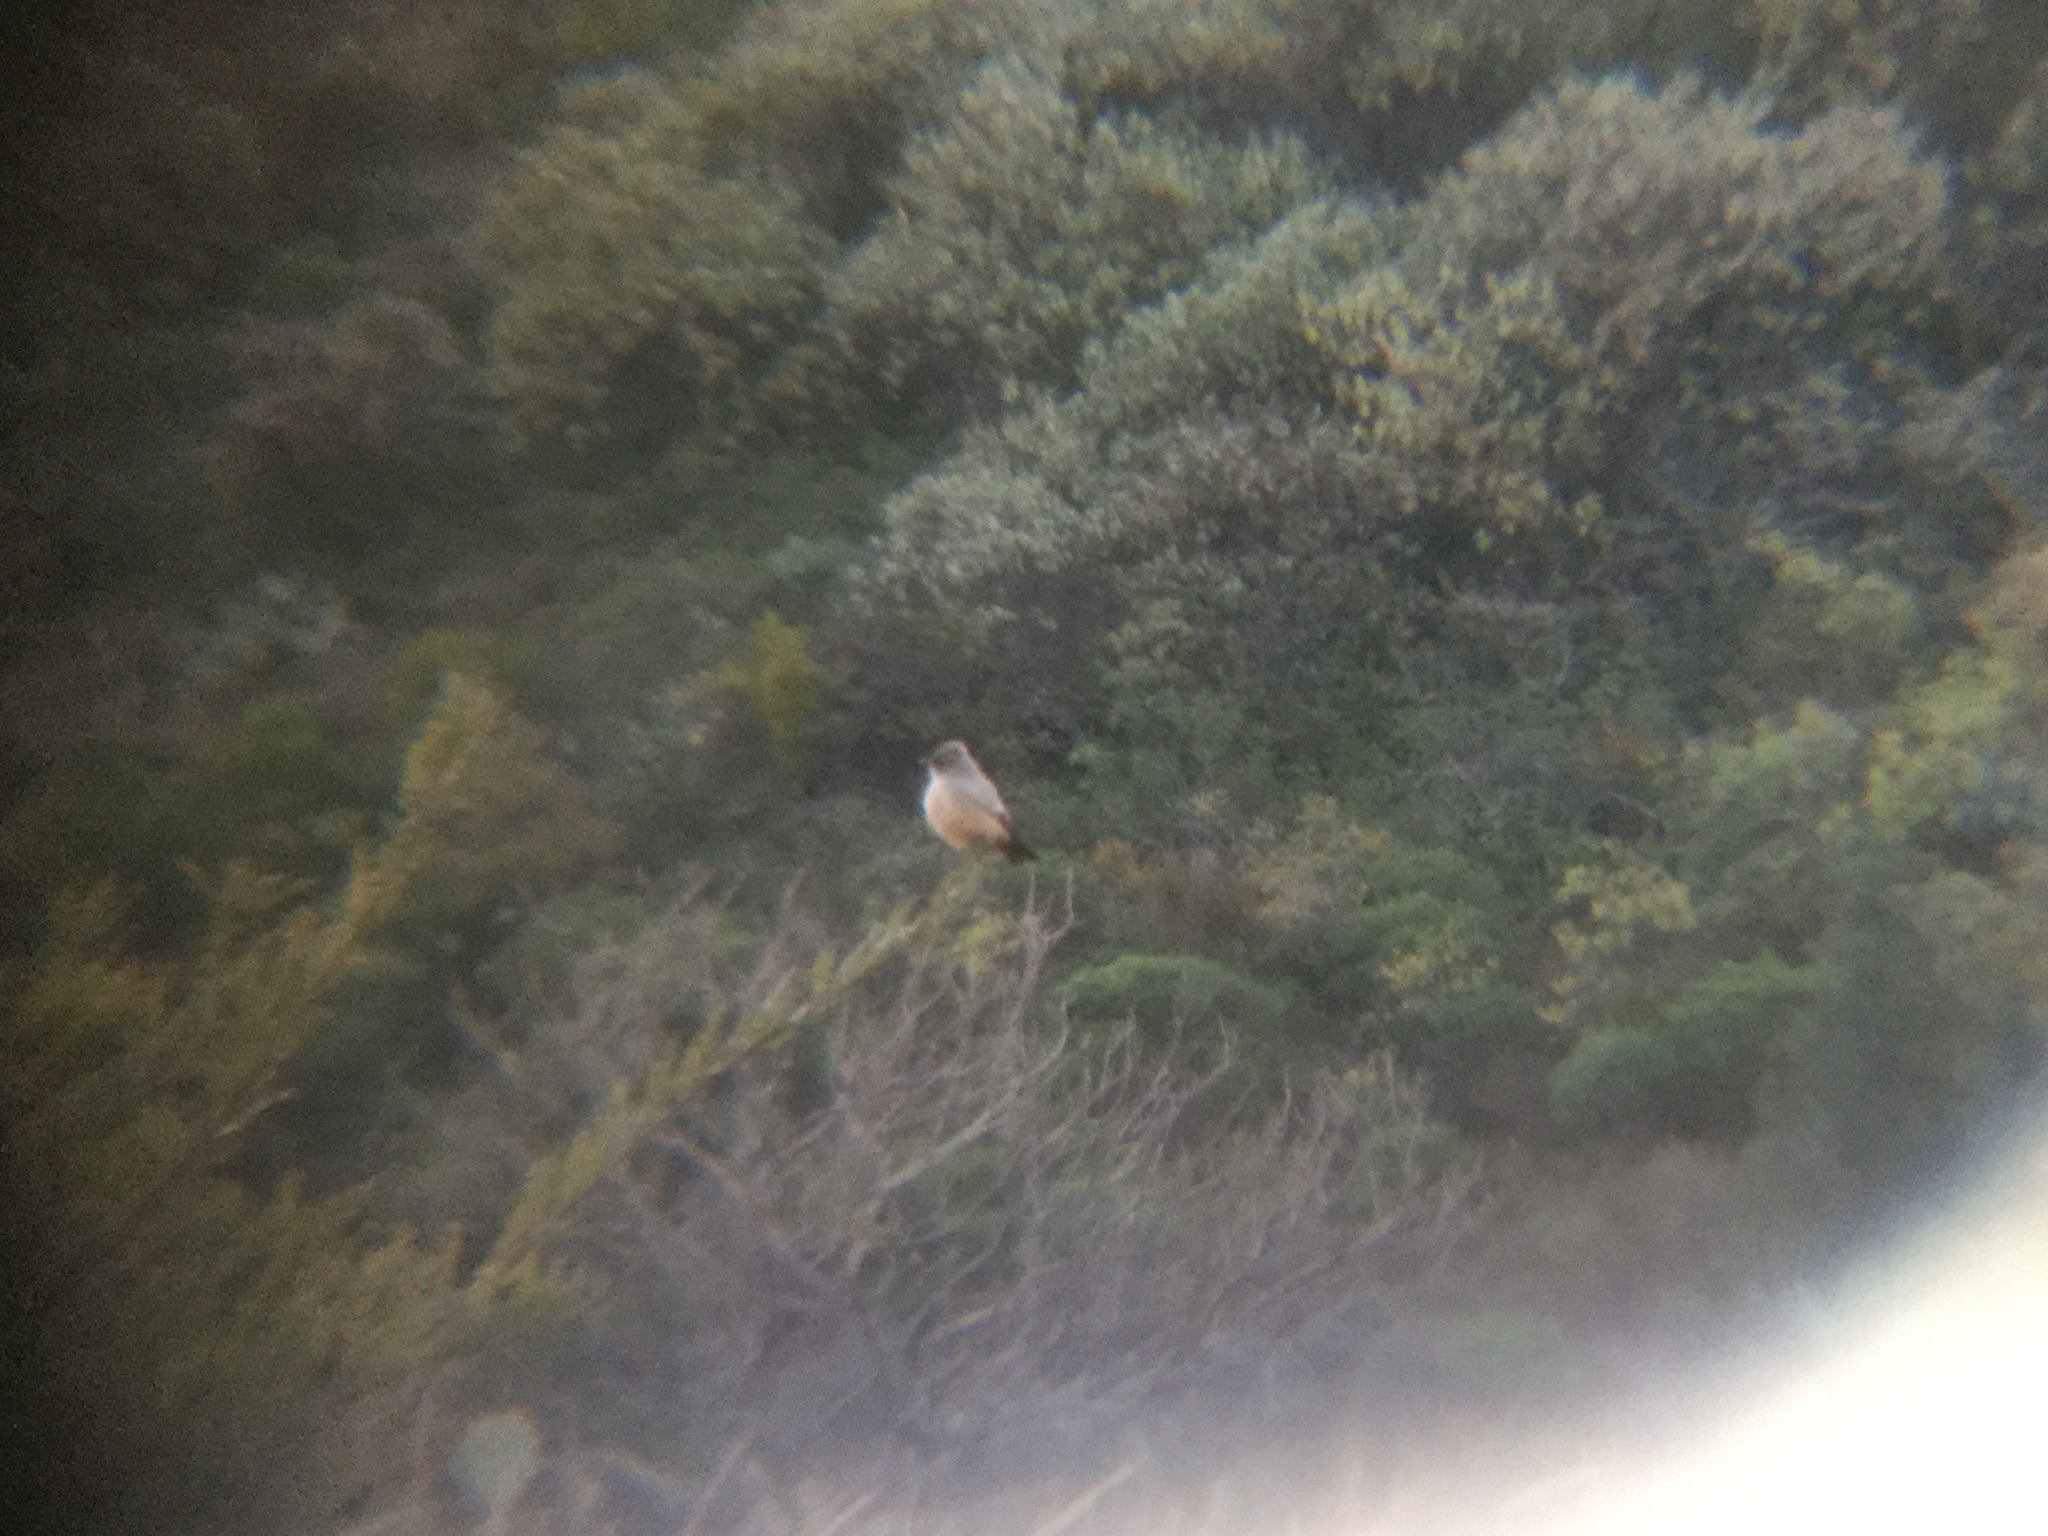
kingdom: Animalia
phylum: Chordata
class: Aves
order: Passeriformes
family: Tyrannidae
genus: Sayornis
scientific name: Sayornis saya
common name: Say's phoebe
